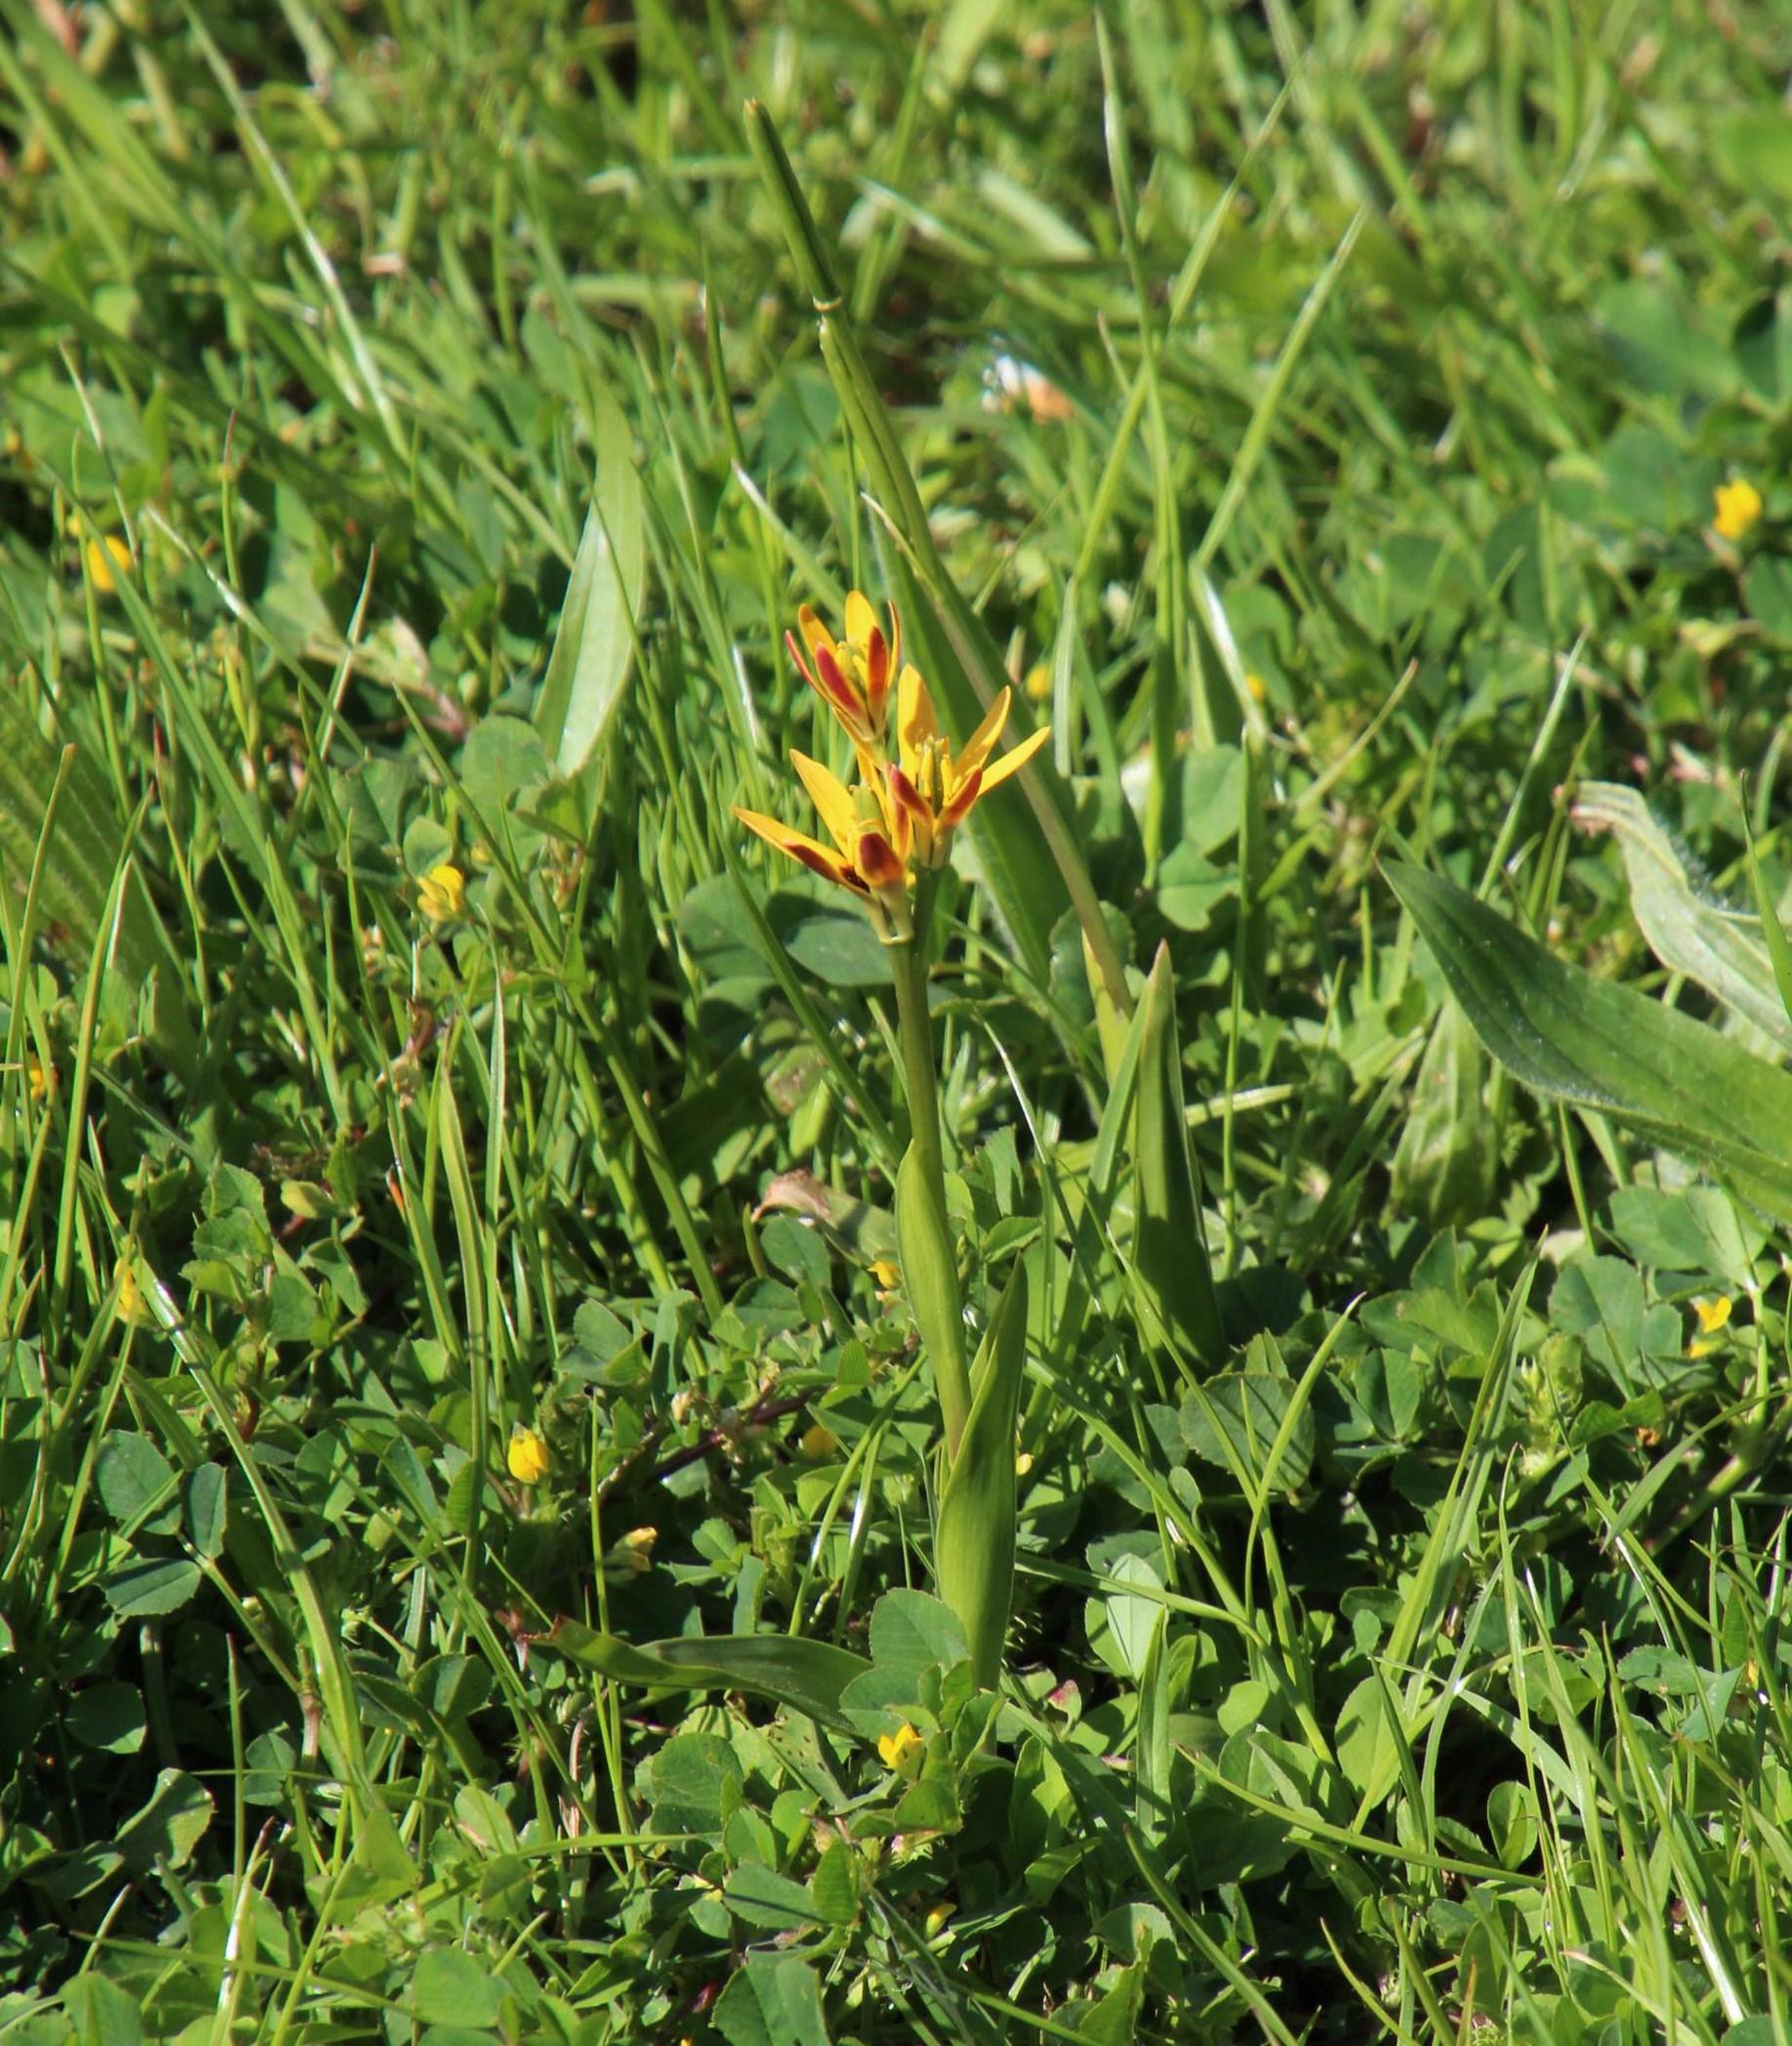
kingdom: Plantae
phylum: Tracheophyta
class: Liliopsida
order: Liliales
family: Colchicaceae
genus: Baeometra
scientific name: Baeometra uniflora
